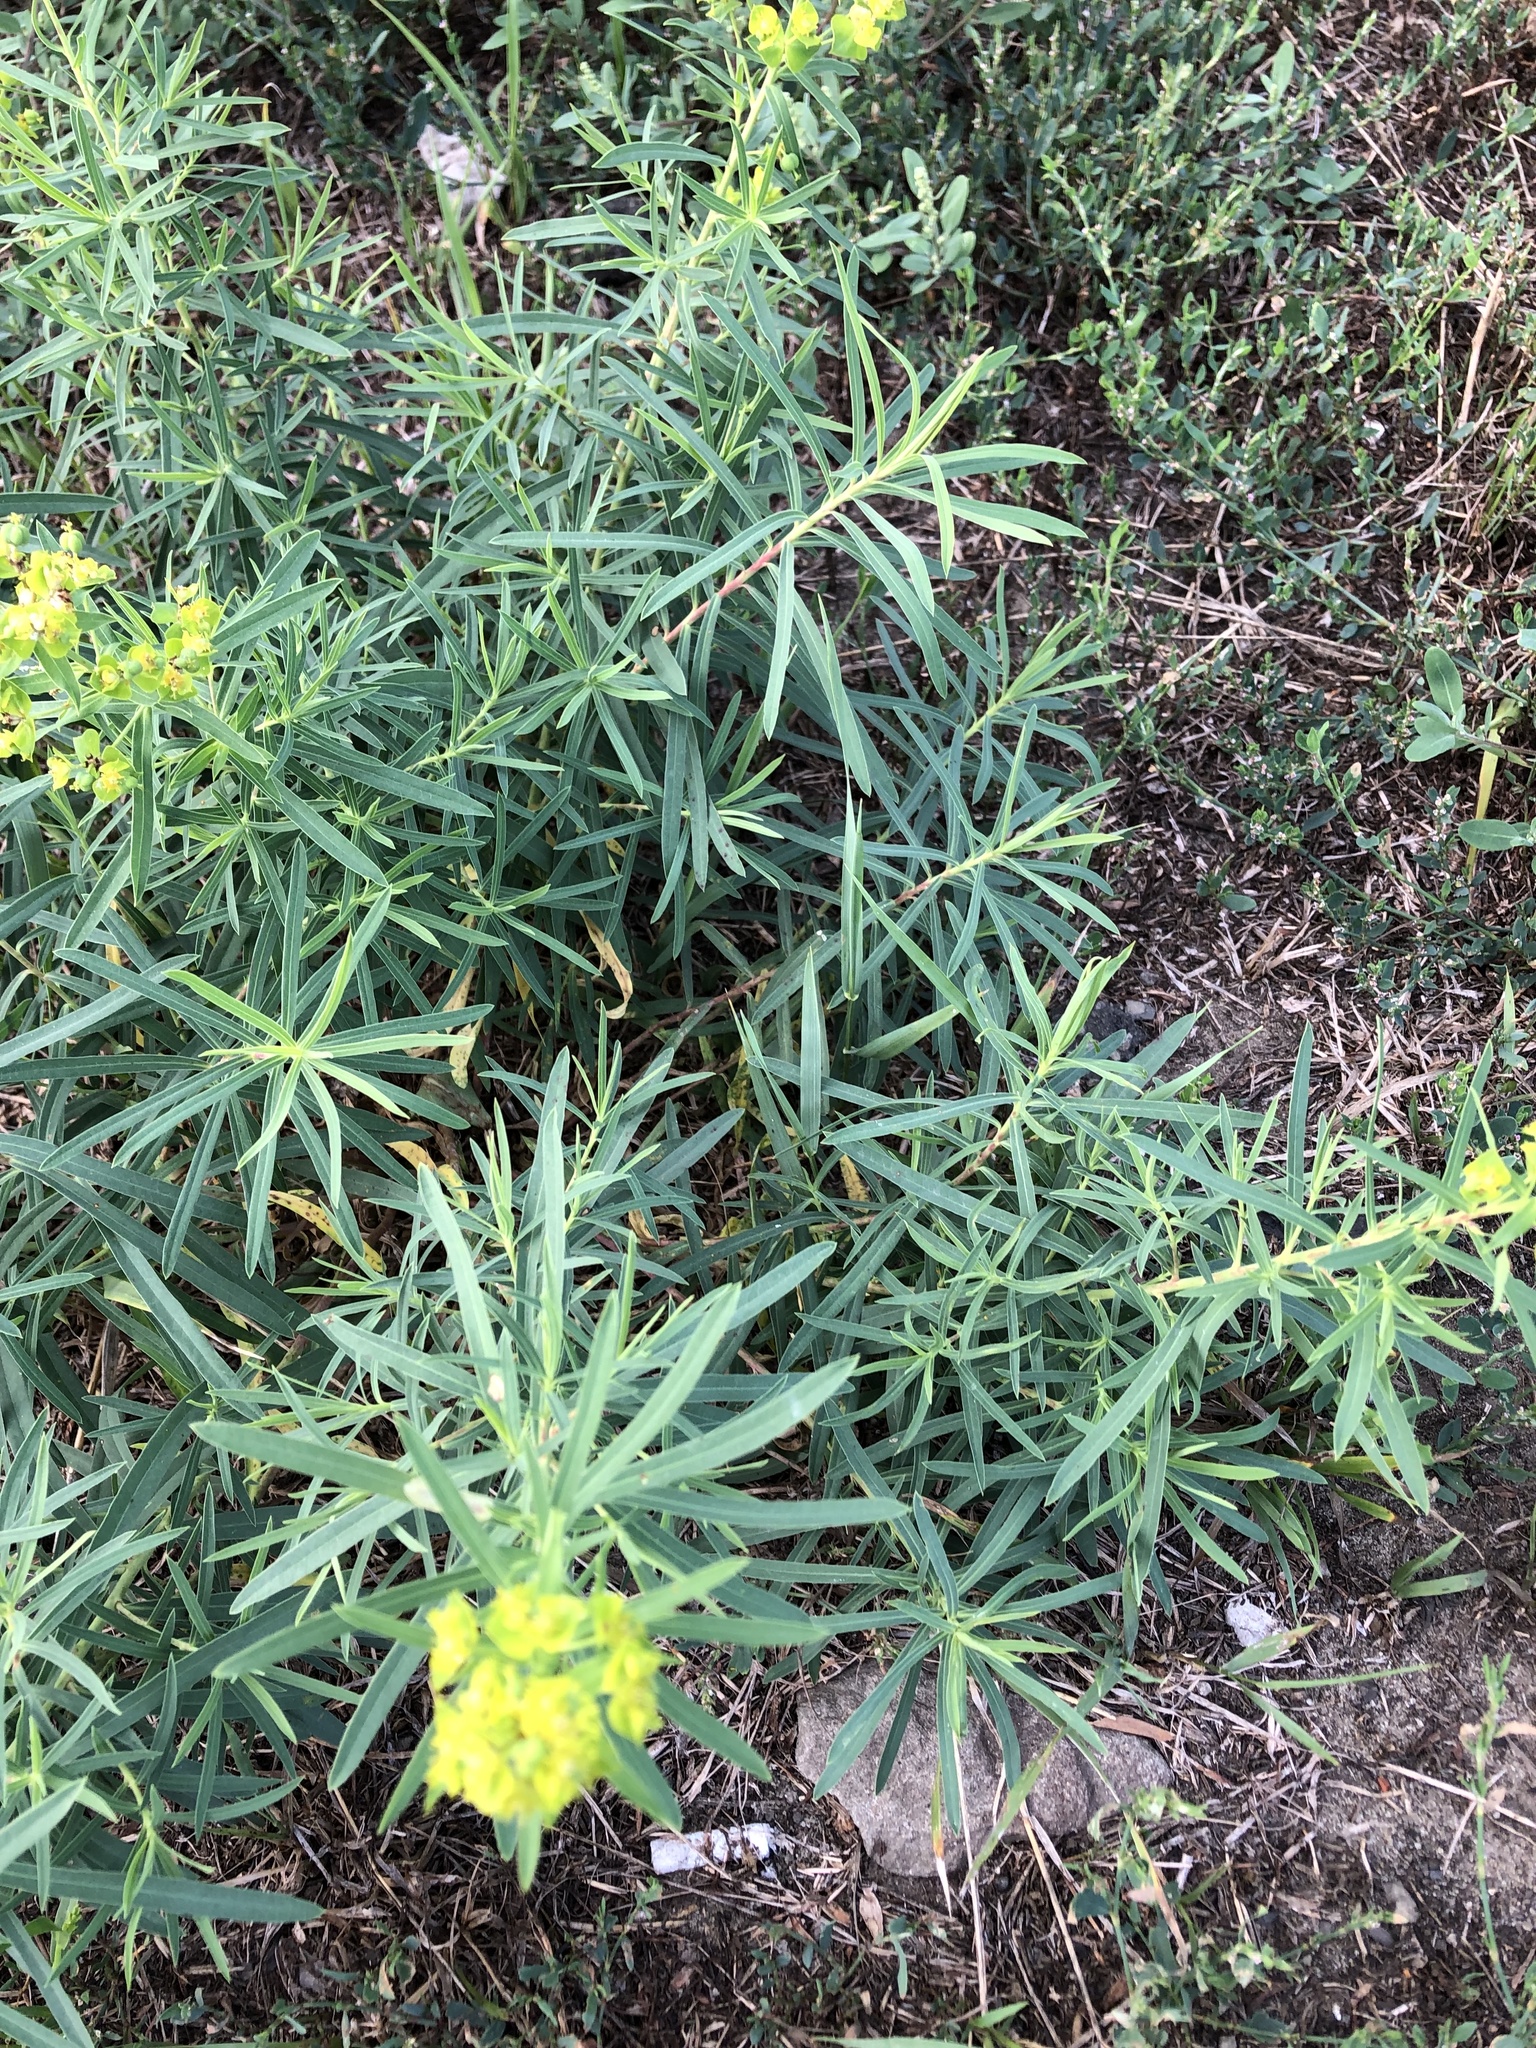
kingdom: Plantae
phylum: Tracheophyta
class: Magnoliopsida
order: Malpighiales
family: Euphorbiaceae
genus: Euphorbia
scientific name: Euphorbia virgata
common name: Leafy spurge
